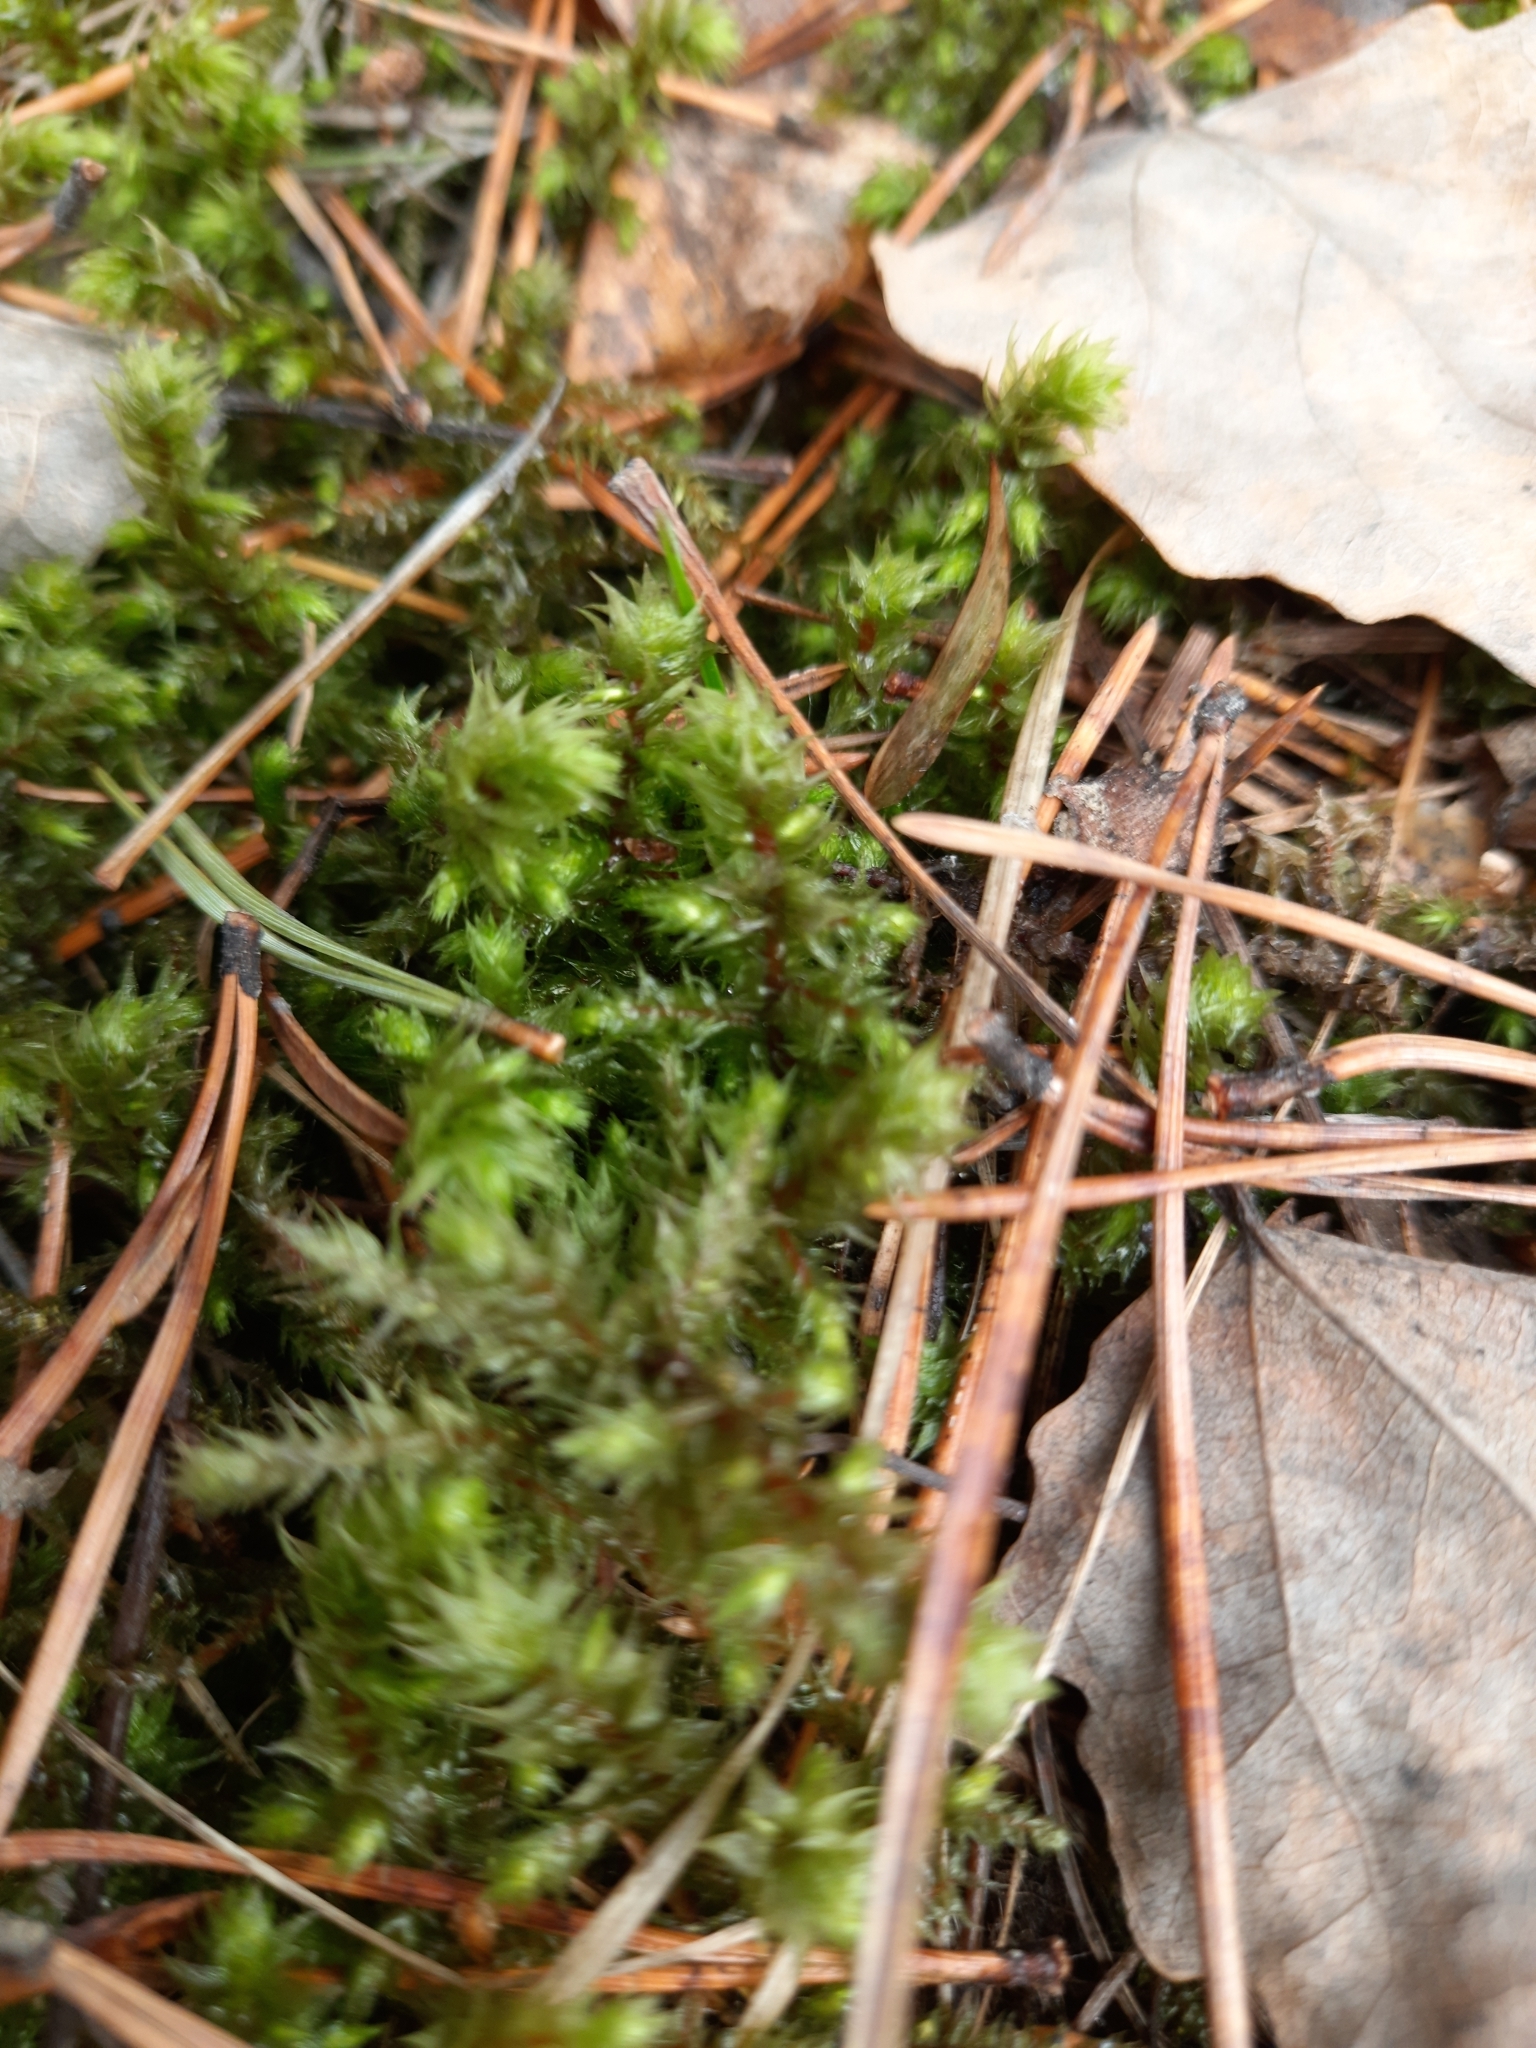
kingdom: Plantae
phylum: Bryophyta
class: Bryopsida
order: Hypnales
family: Hylocomiaceae
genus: Hylocomiadelphus
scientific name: Hylocomiadelphus triquetrus
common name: Rough goose neck moss
